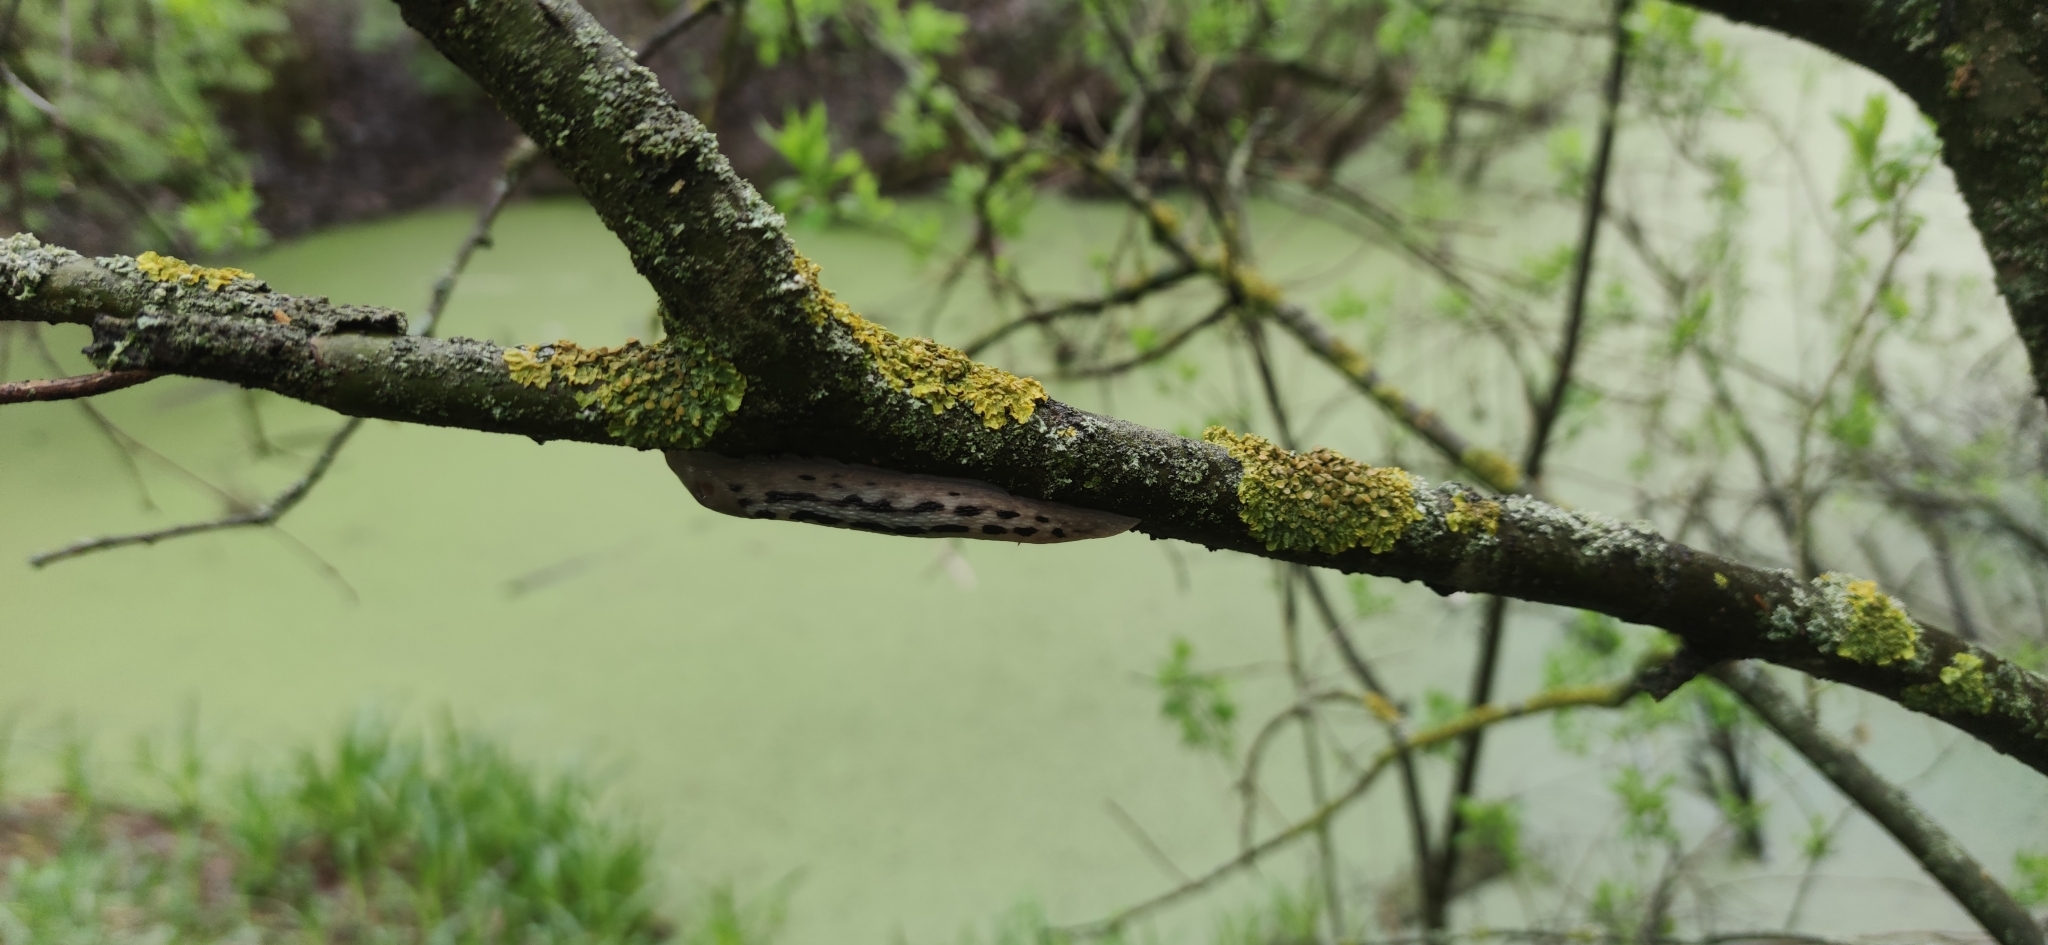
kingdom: Animalia
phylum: Mollusca
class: Gastropoda
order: Stylommatophora
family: Limacidae
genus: Limax
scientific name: Limax cinereoniger
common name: Ash-black slug
